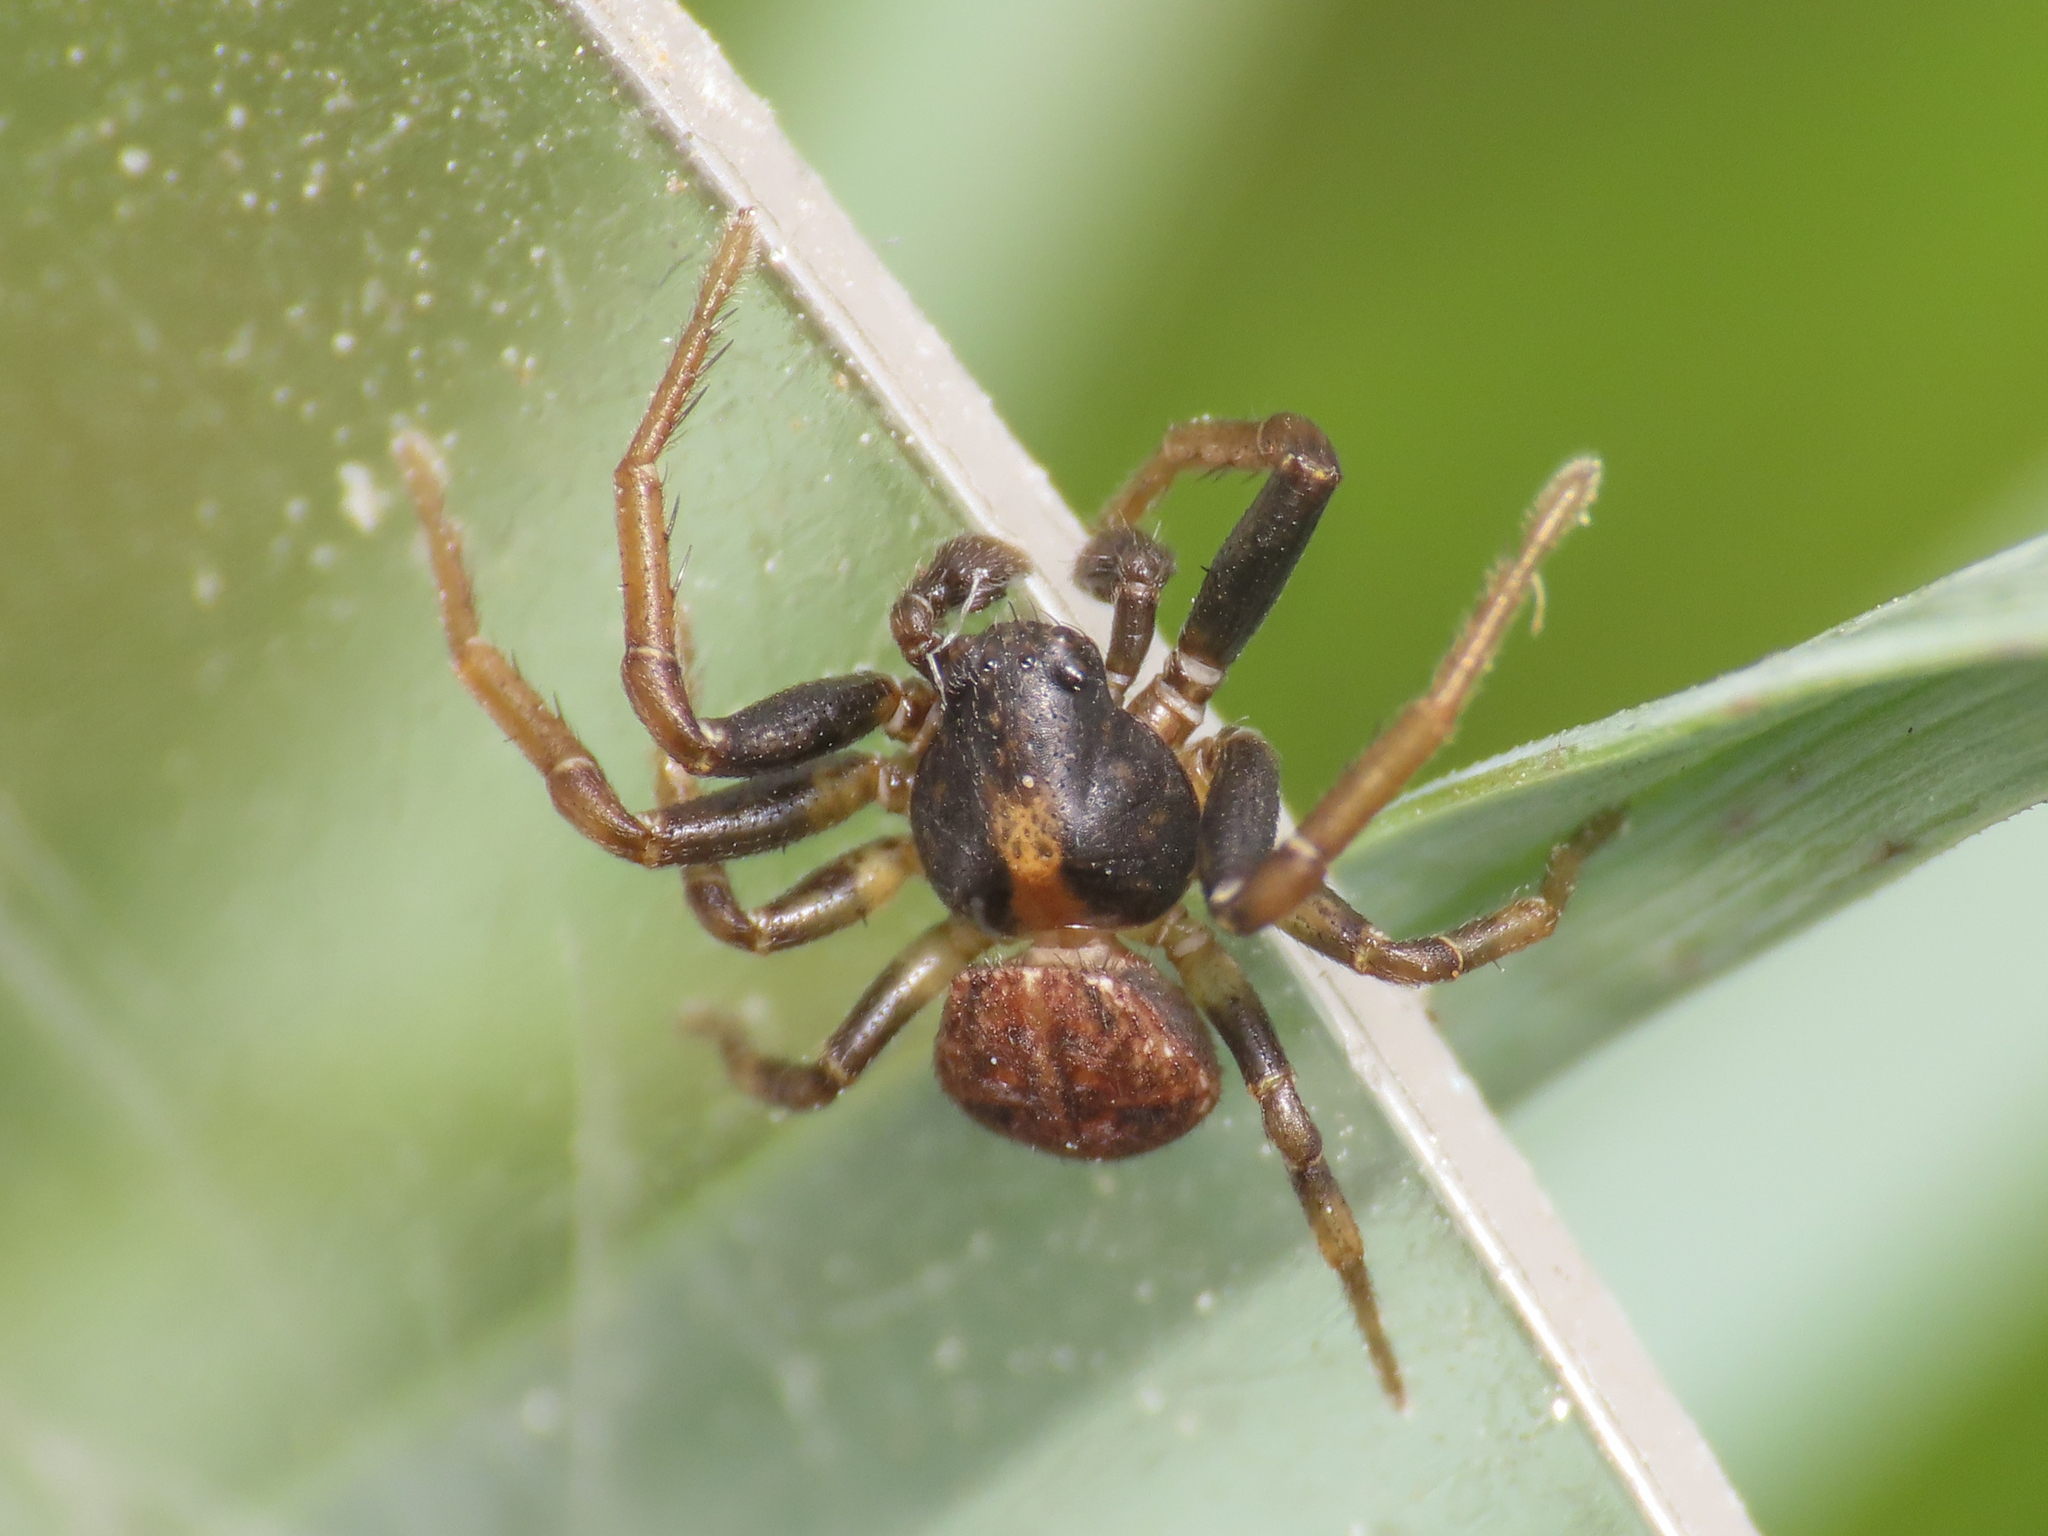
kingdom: Animalia
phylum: Arthropoda
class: Arachnida
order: Araneae
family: Thomisidae
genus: Ozyptila
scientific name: Ozyptila simplex
